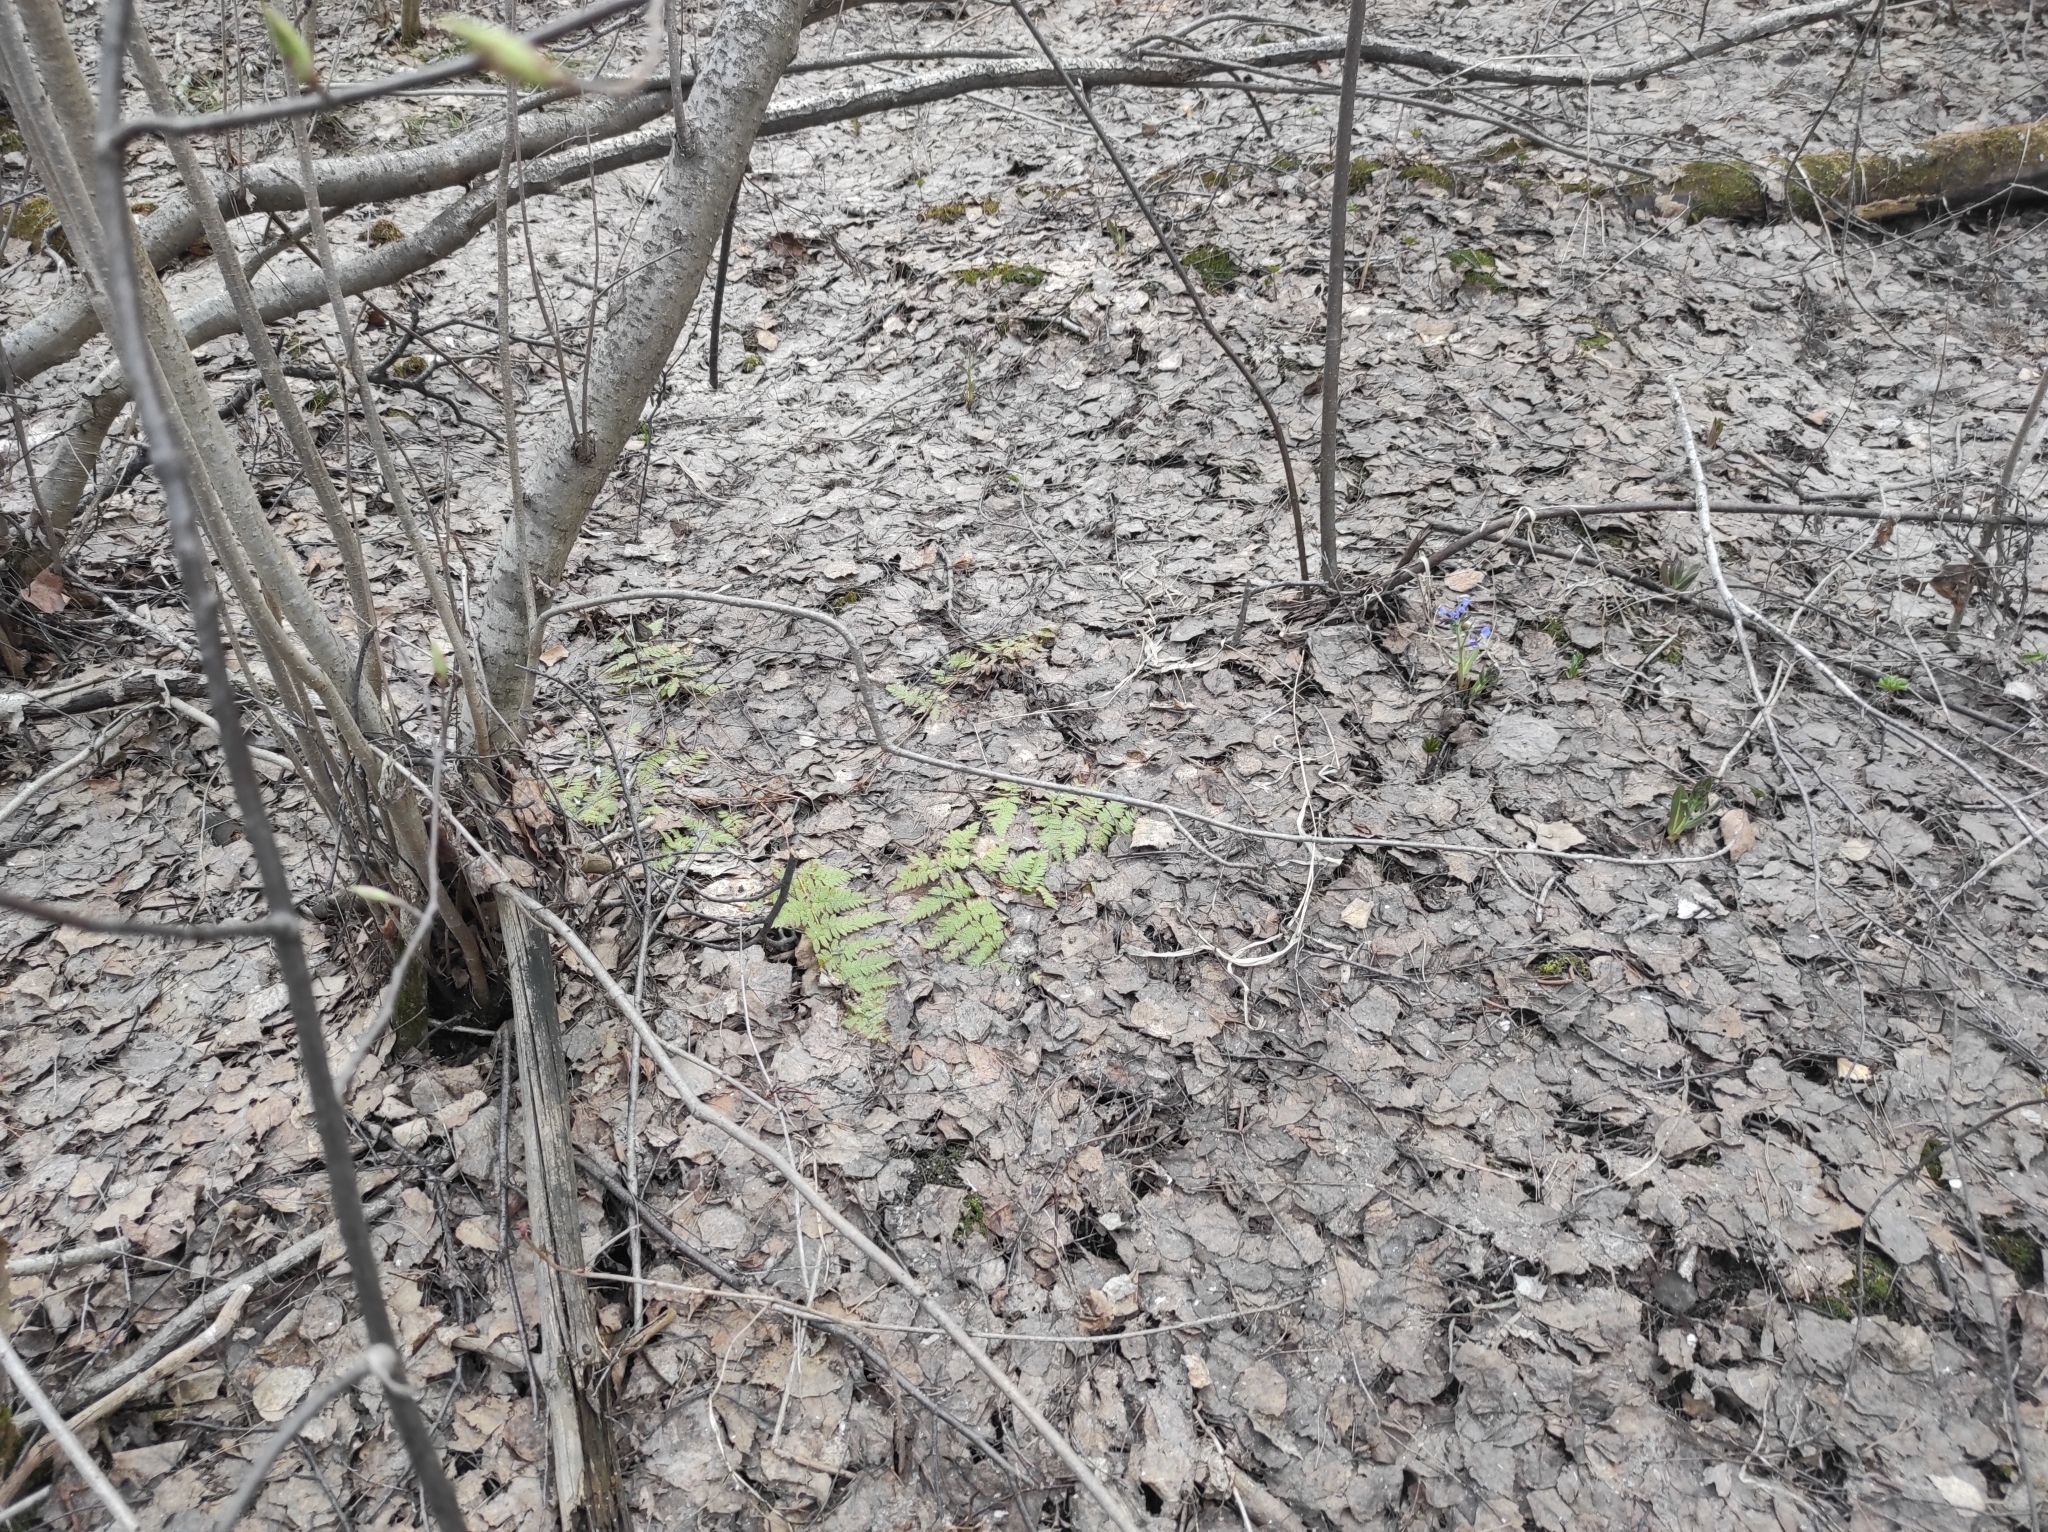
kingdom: Plantae
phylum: Tracheophyta
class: Polypodiopsida
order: Polypodiales
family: Dryopteridaceae
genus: Dryopteris
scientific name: Dryopteris carthusiana
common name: Narrow buckler-fern
